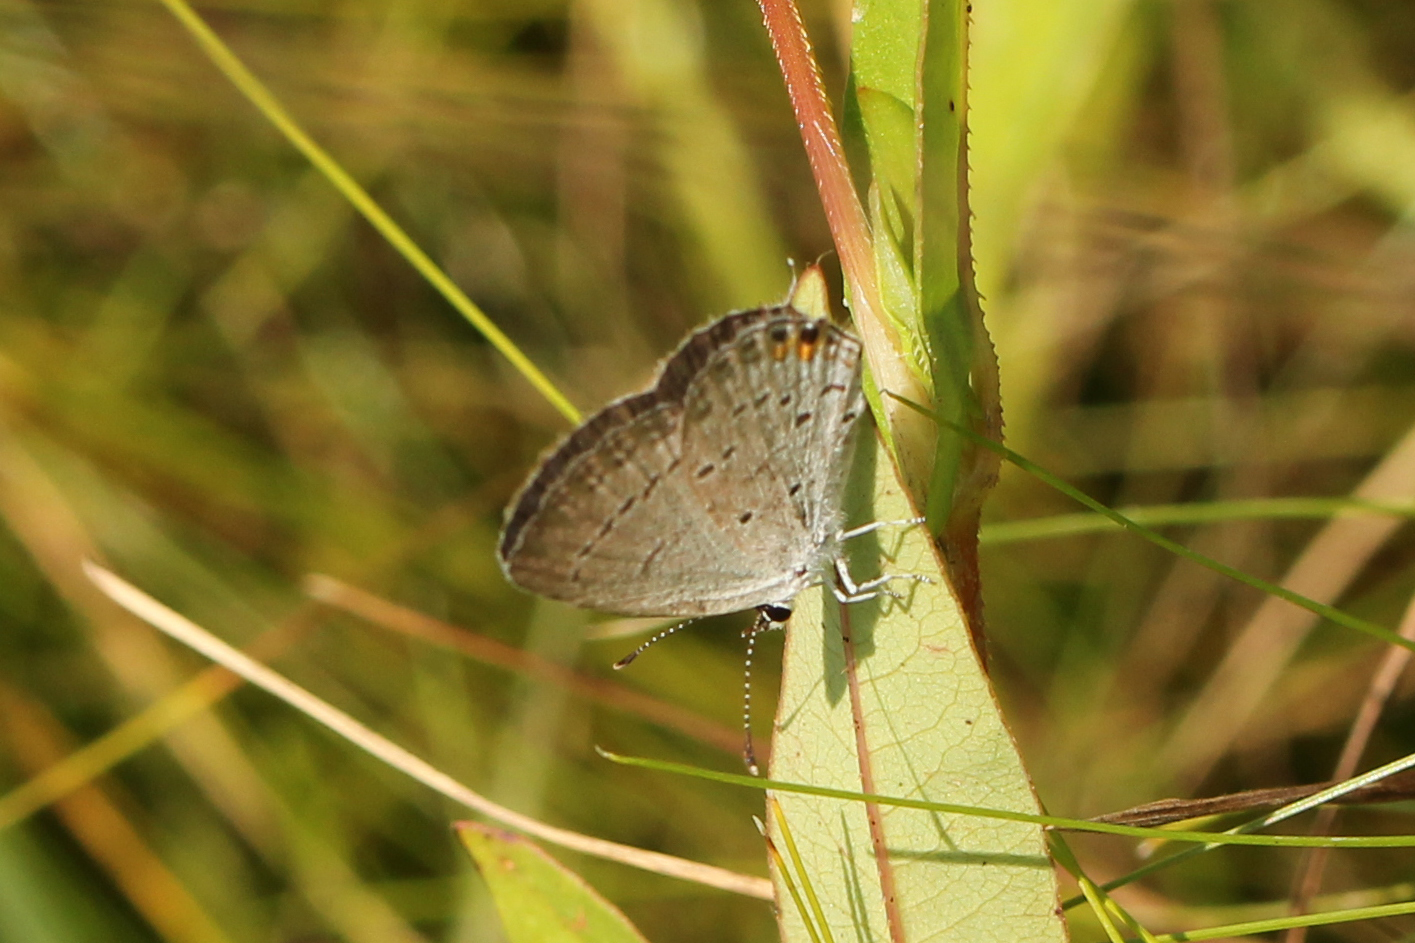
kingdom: Animalia
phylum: Arthropoda
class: Insecta
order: Lepidoptera
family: Lycaenidae
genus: Elkalyce
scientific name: Elkalyce comyntas
